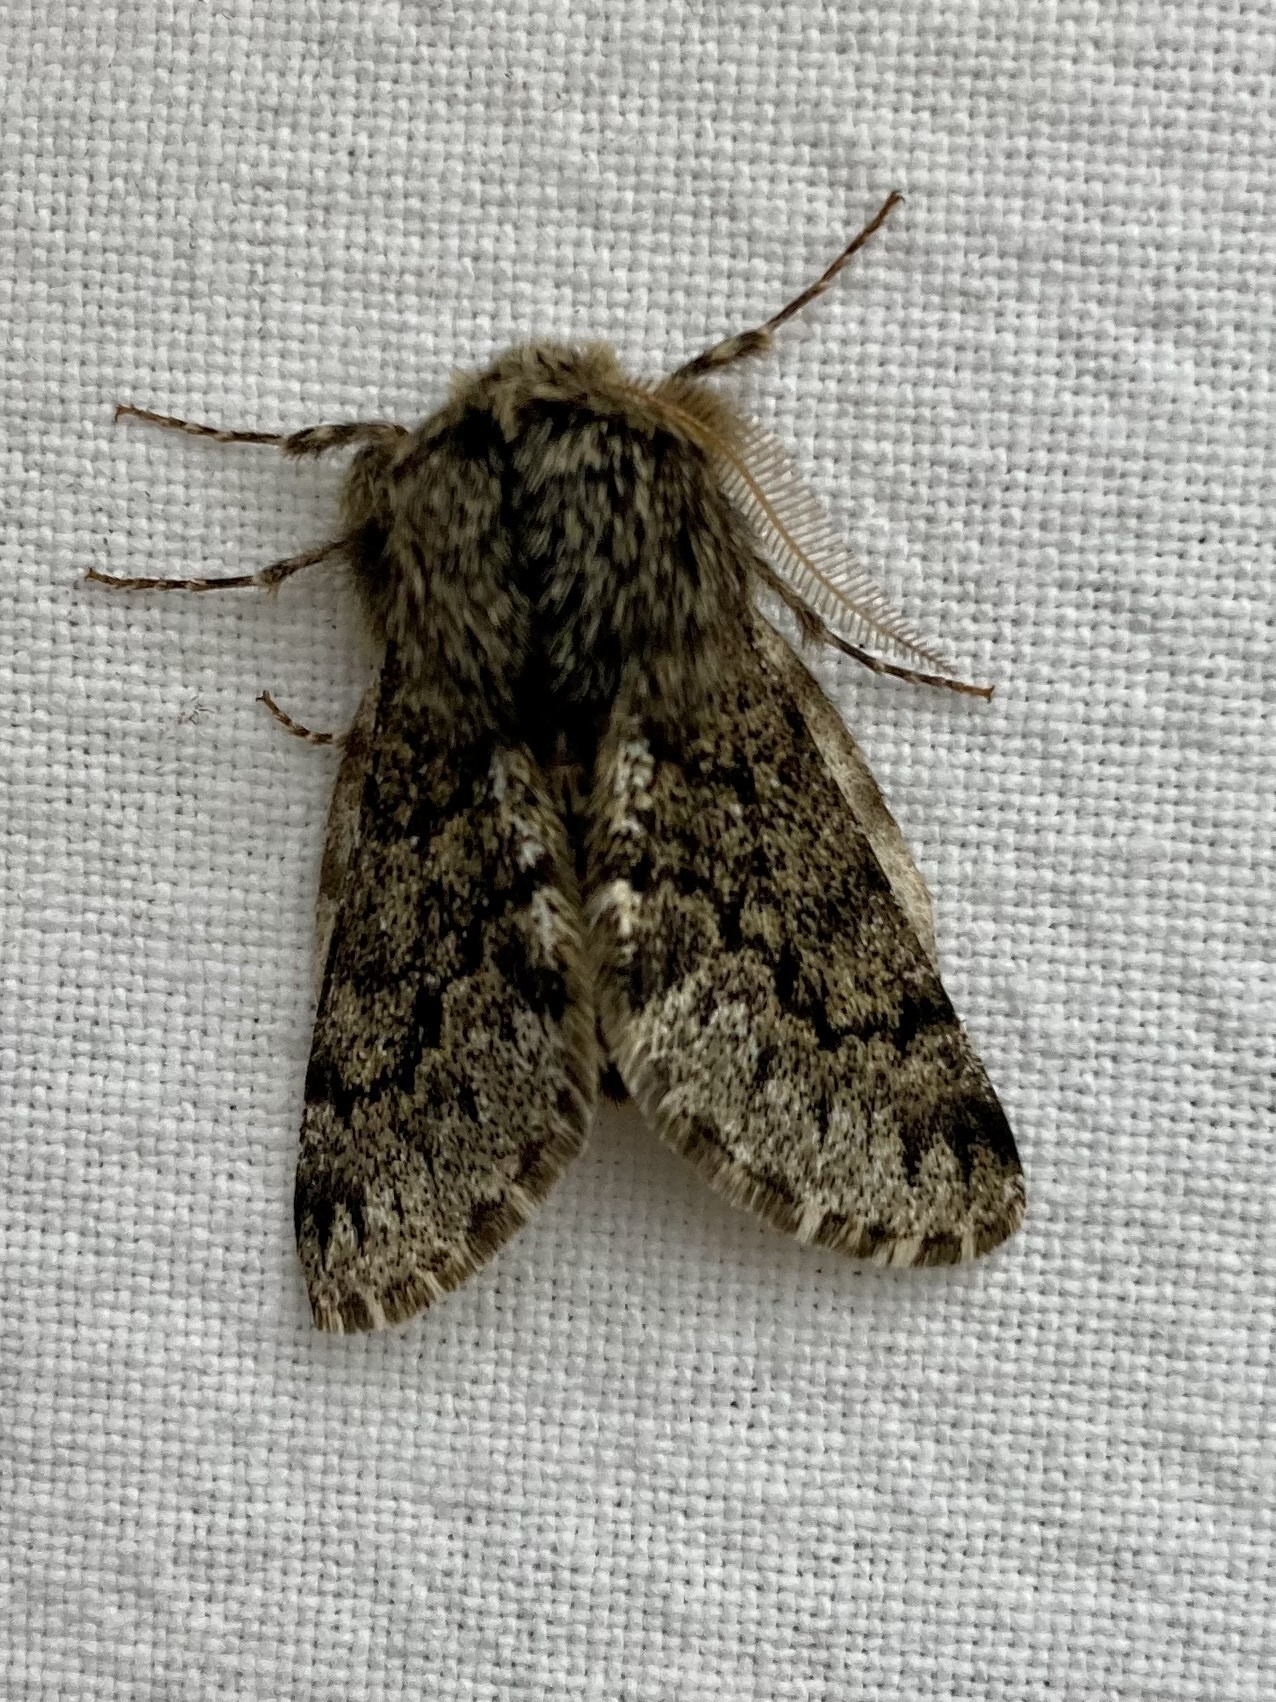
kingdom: Animalia
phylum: Arthropoda
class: Insecta
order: Lepidoptera
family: Geometridae
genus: Apocheima
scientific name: Apocheima hispidaria
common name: Small brindled beauty
